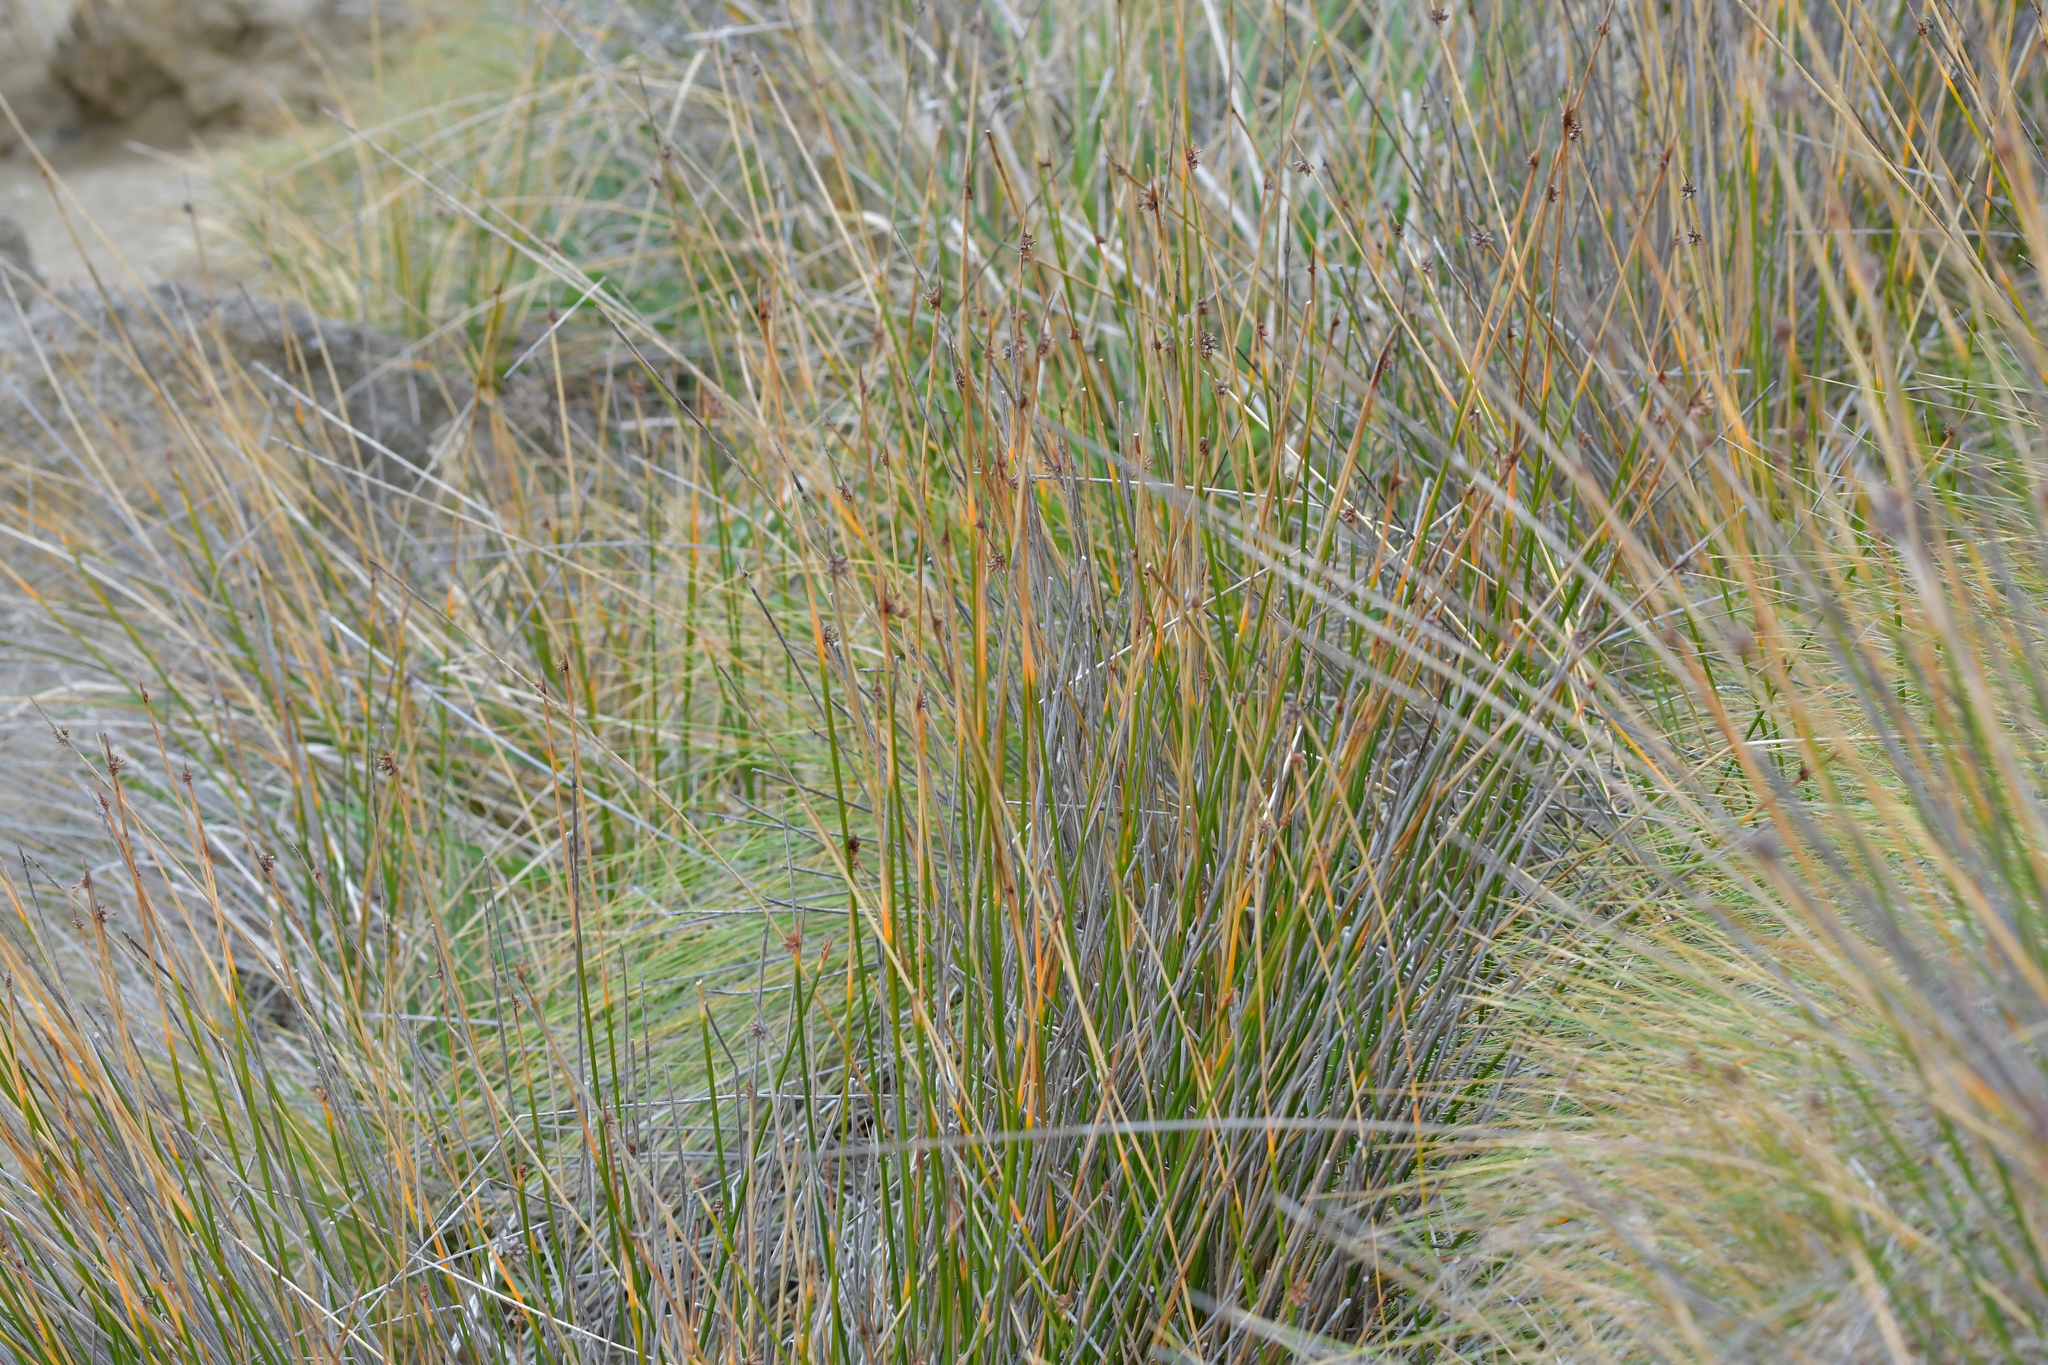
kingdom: Plantae
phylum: Tracheophyta
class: Liliopsida
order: Poales
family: Cyperaceae
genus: Ficinia
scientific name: Ficinia nodosa
